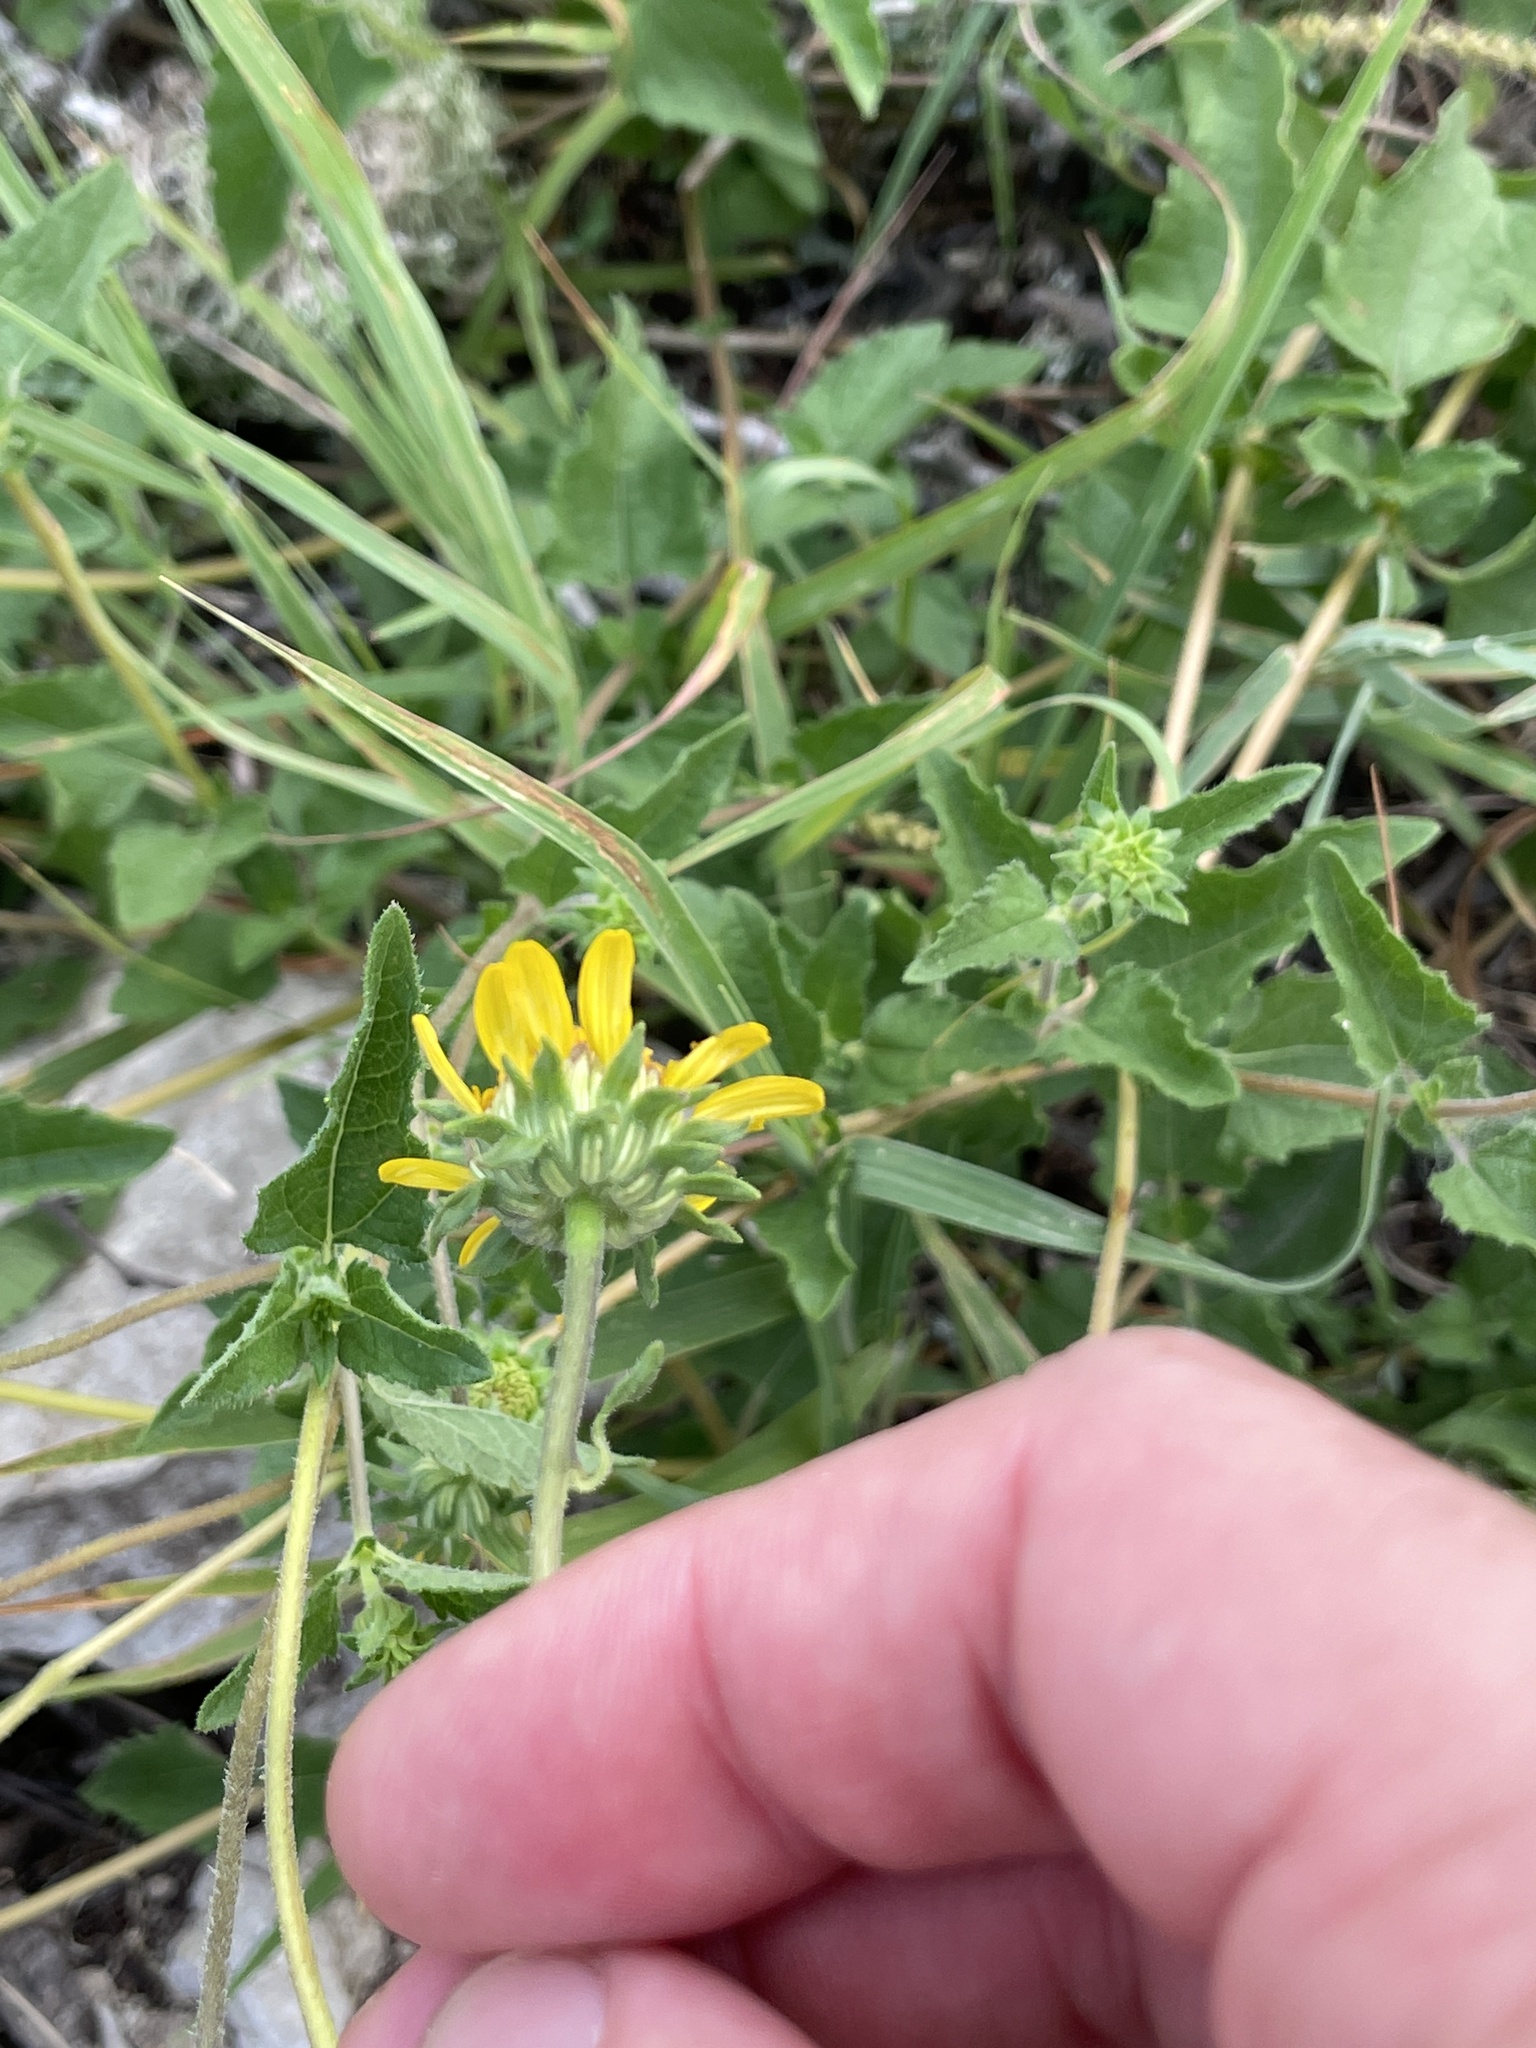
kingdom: Plantae
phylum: Tracheophyta
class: Magnoliopsida
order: Asterales
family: Asteraceae
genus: Simsia
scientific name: Simsia calva
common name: Awnless bush-sunflower
